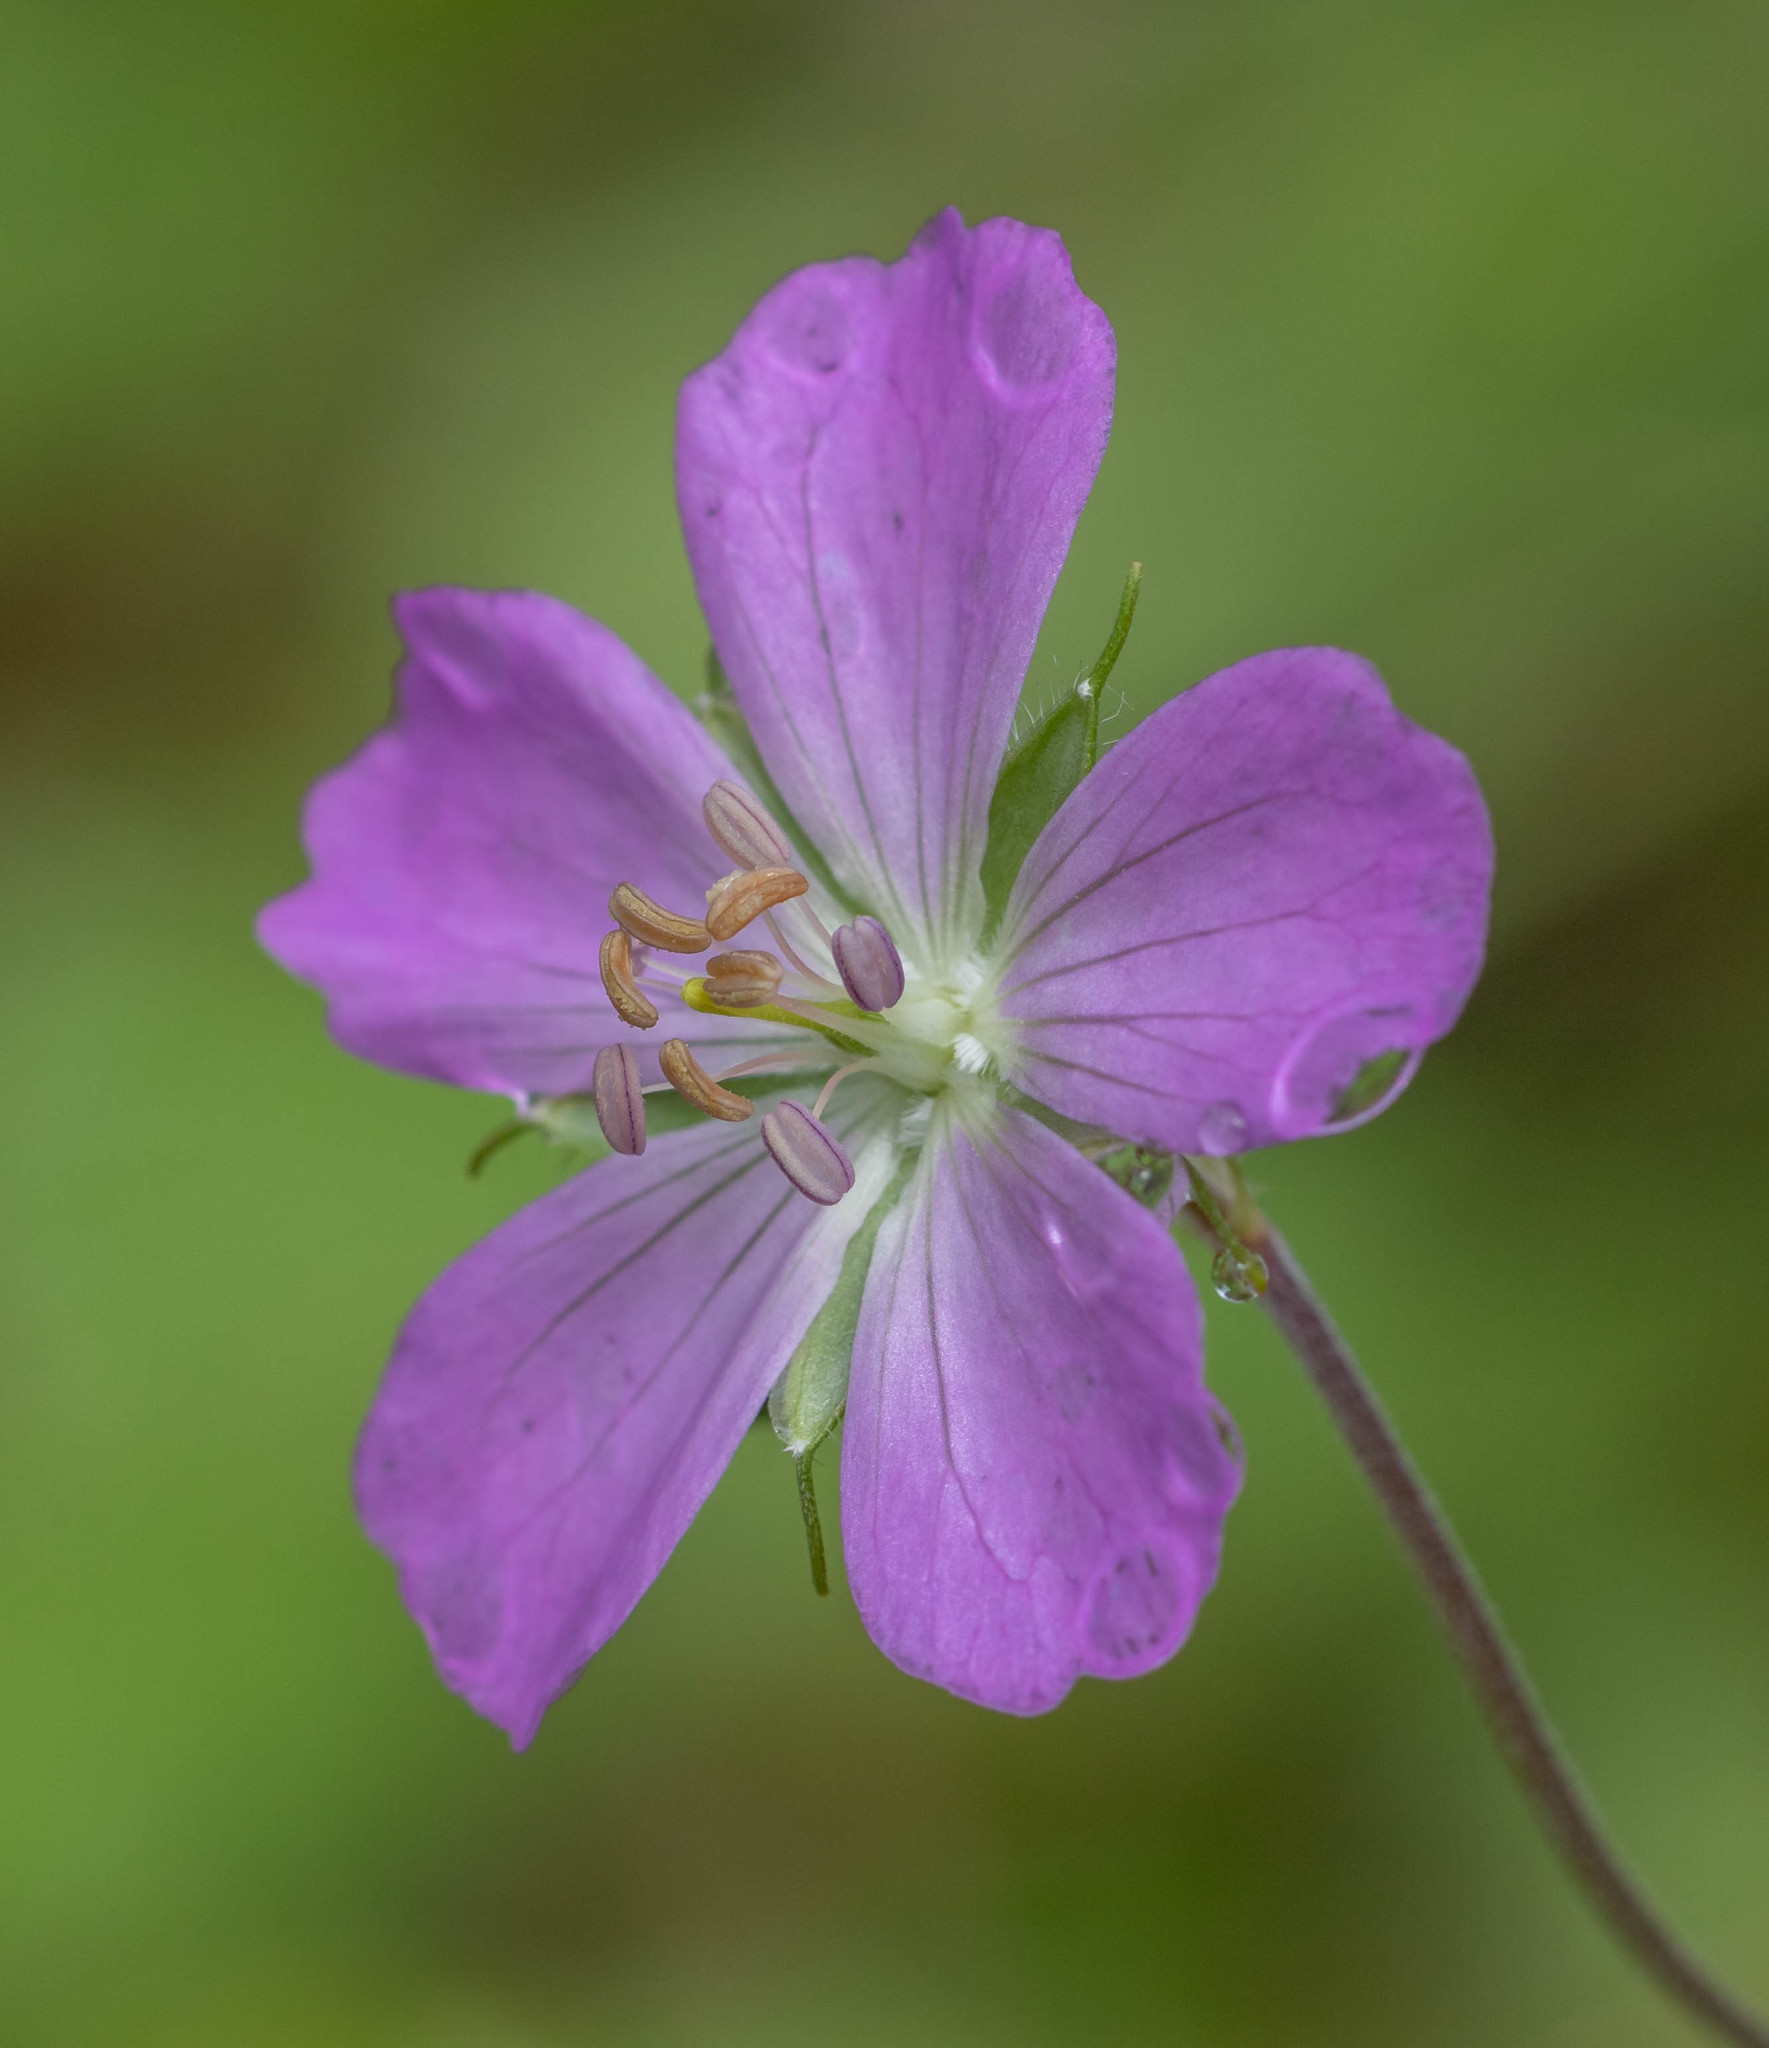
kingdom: Plantae
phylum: Tracheophyta
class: Magnoliopsida
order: Geraniales
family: Geraniaceae
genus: Geranium
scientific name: Geranium maculatum
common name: Spotted geranium
